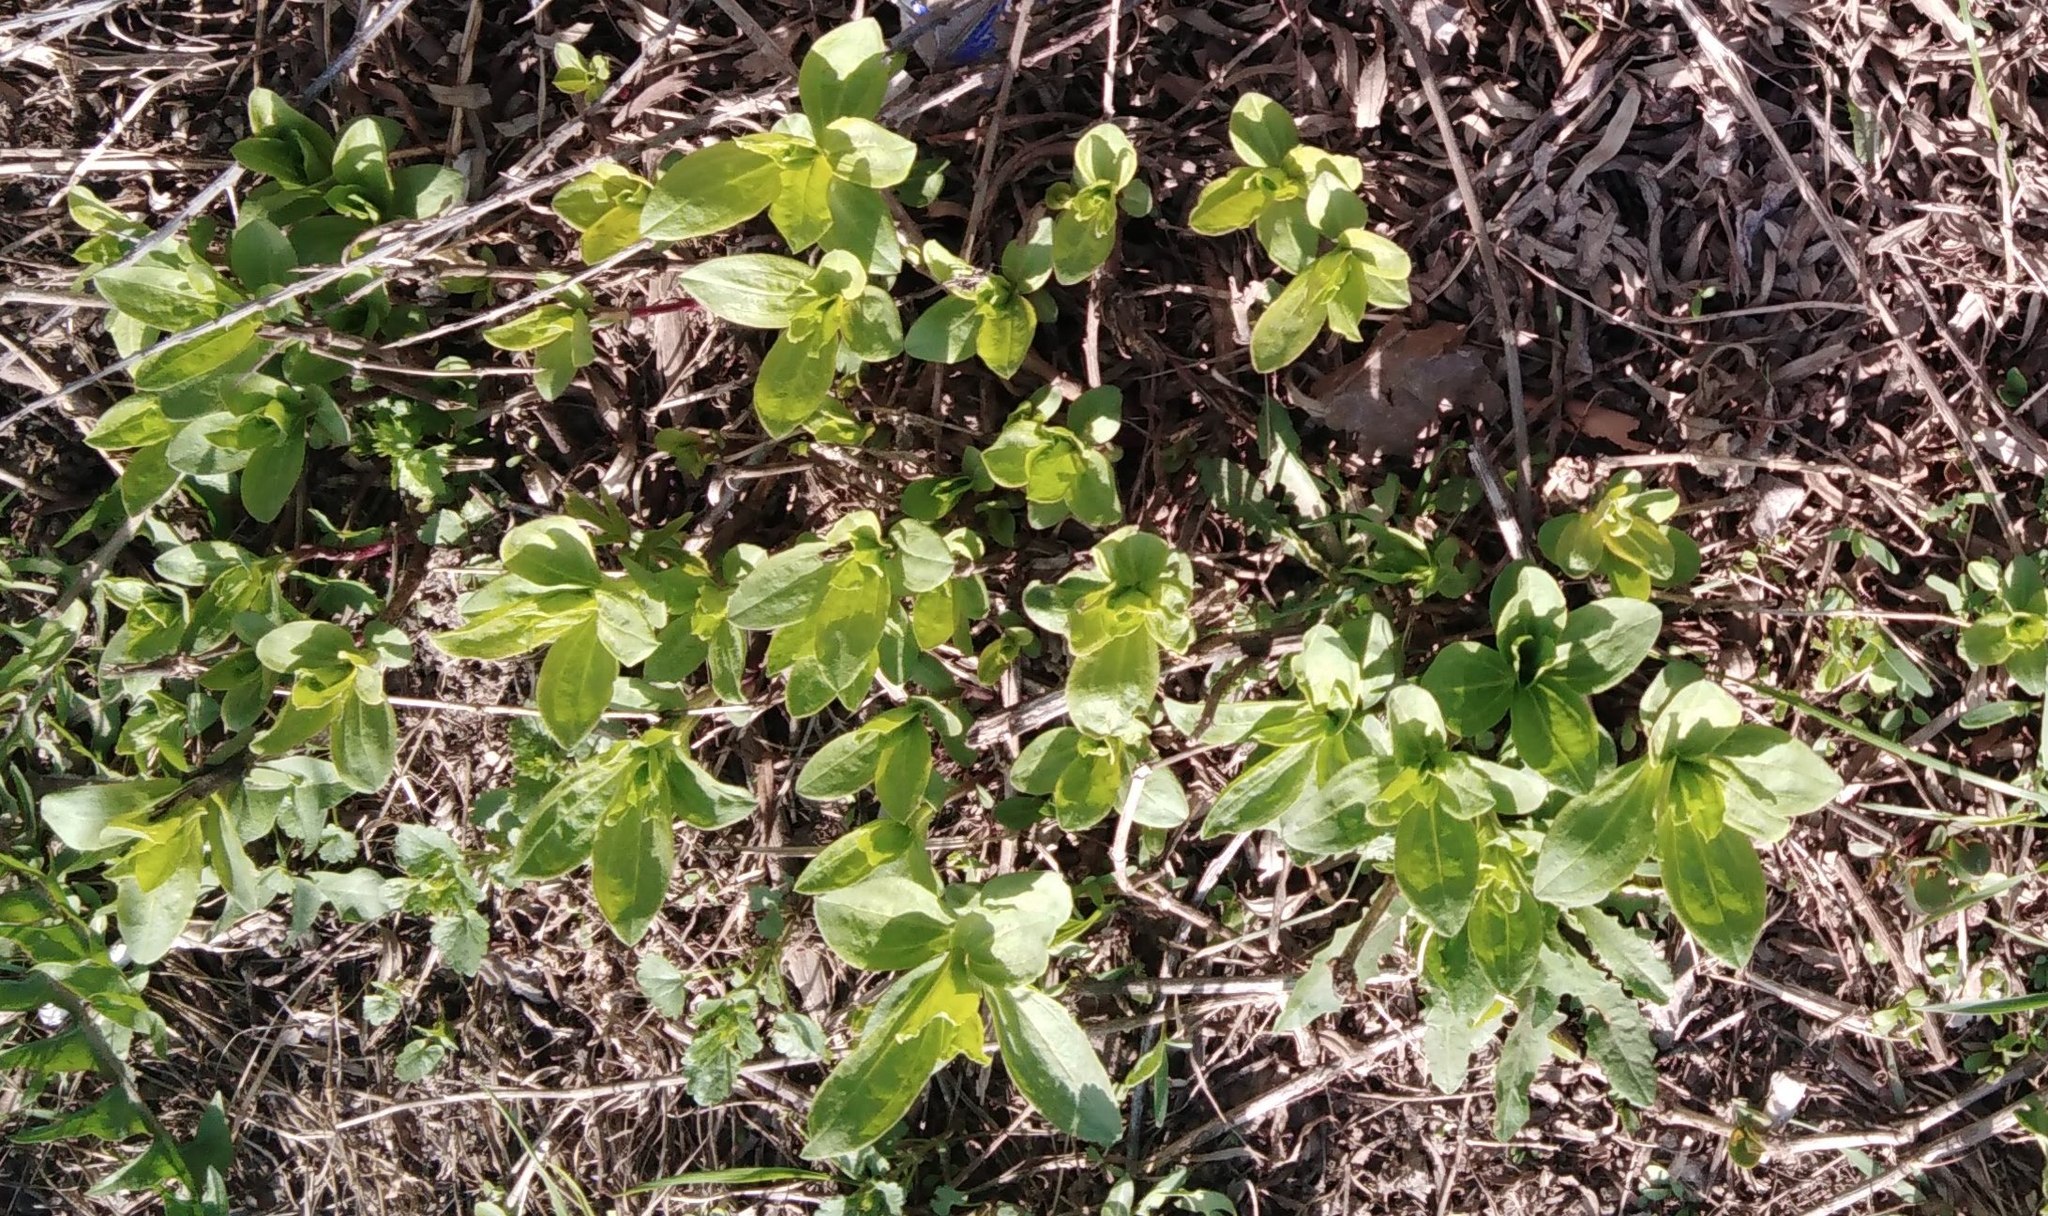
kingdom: Plantae
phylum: Tracheophyta
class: Magnoliopsida
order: Caryophyllales
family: Caryophyllaceae
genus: Saponaria
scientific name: Saponaria officinalis
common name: Soapwort
